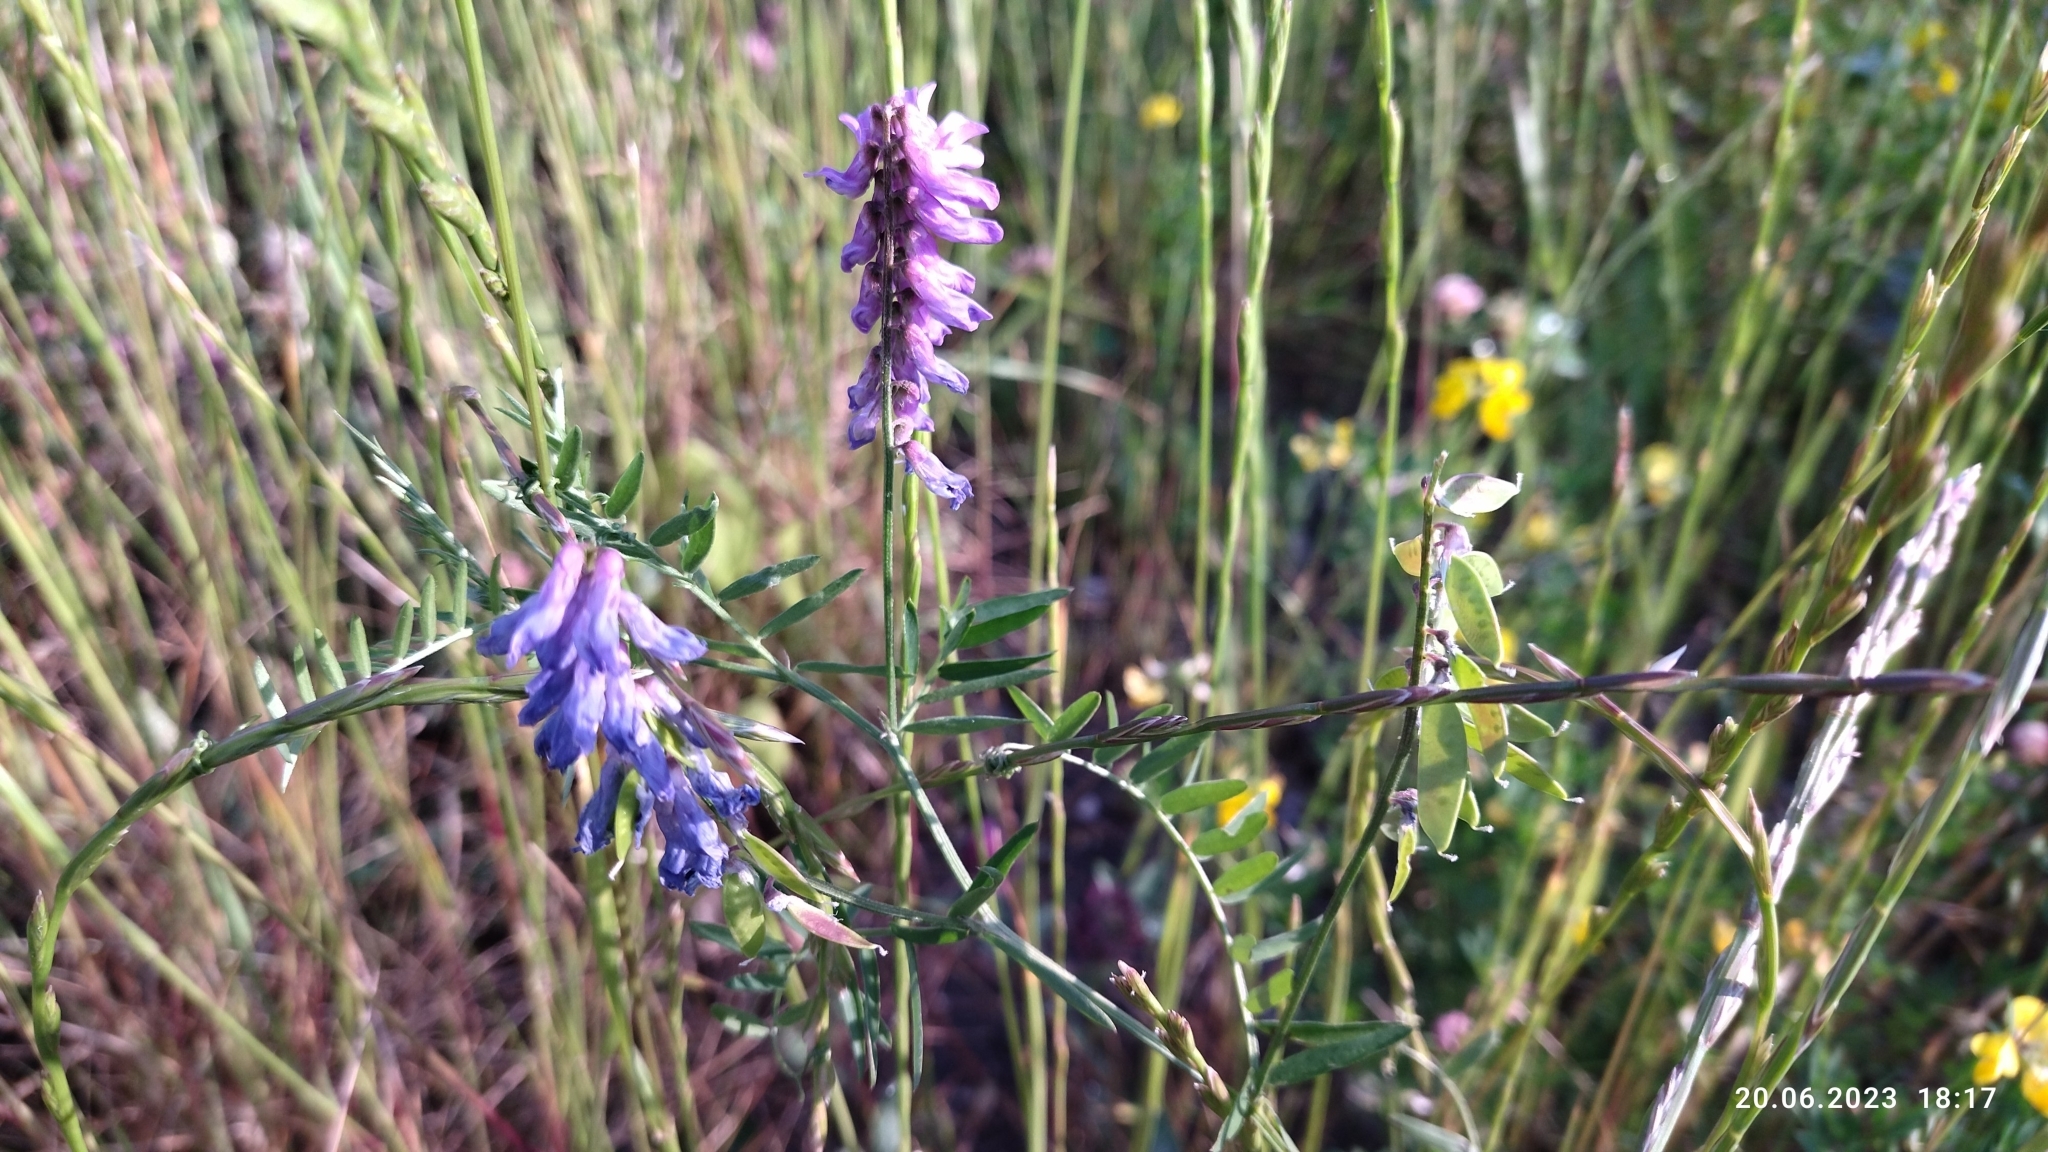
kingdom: Plantae
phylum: Tracheophyta
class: Magnoliopsida
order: Fabales
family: Fabaceae
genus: Vicia
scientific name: Vicia cracca
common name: Bird vetch
